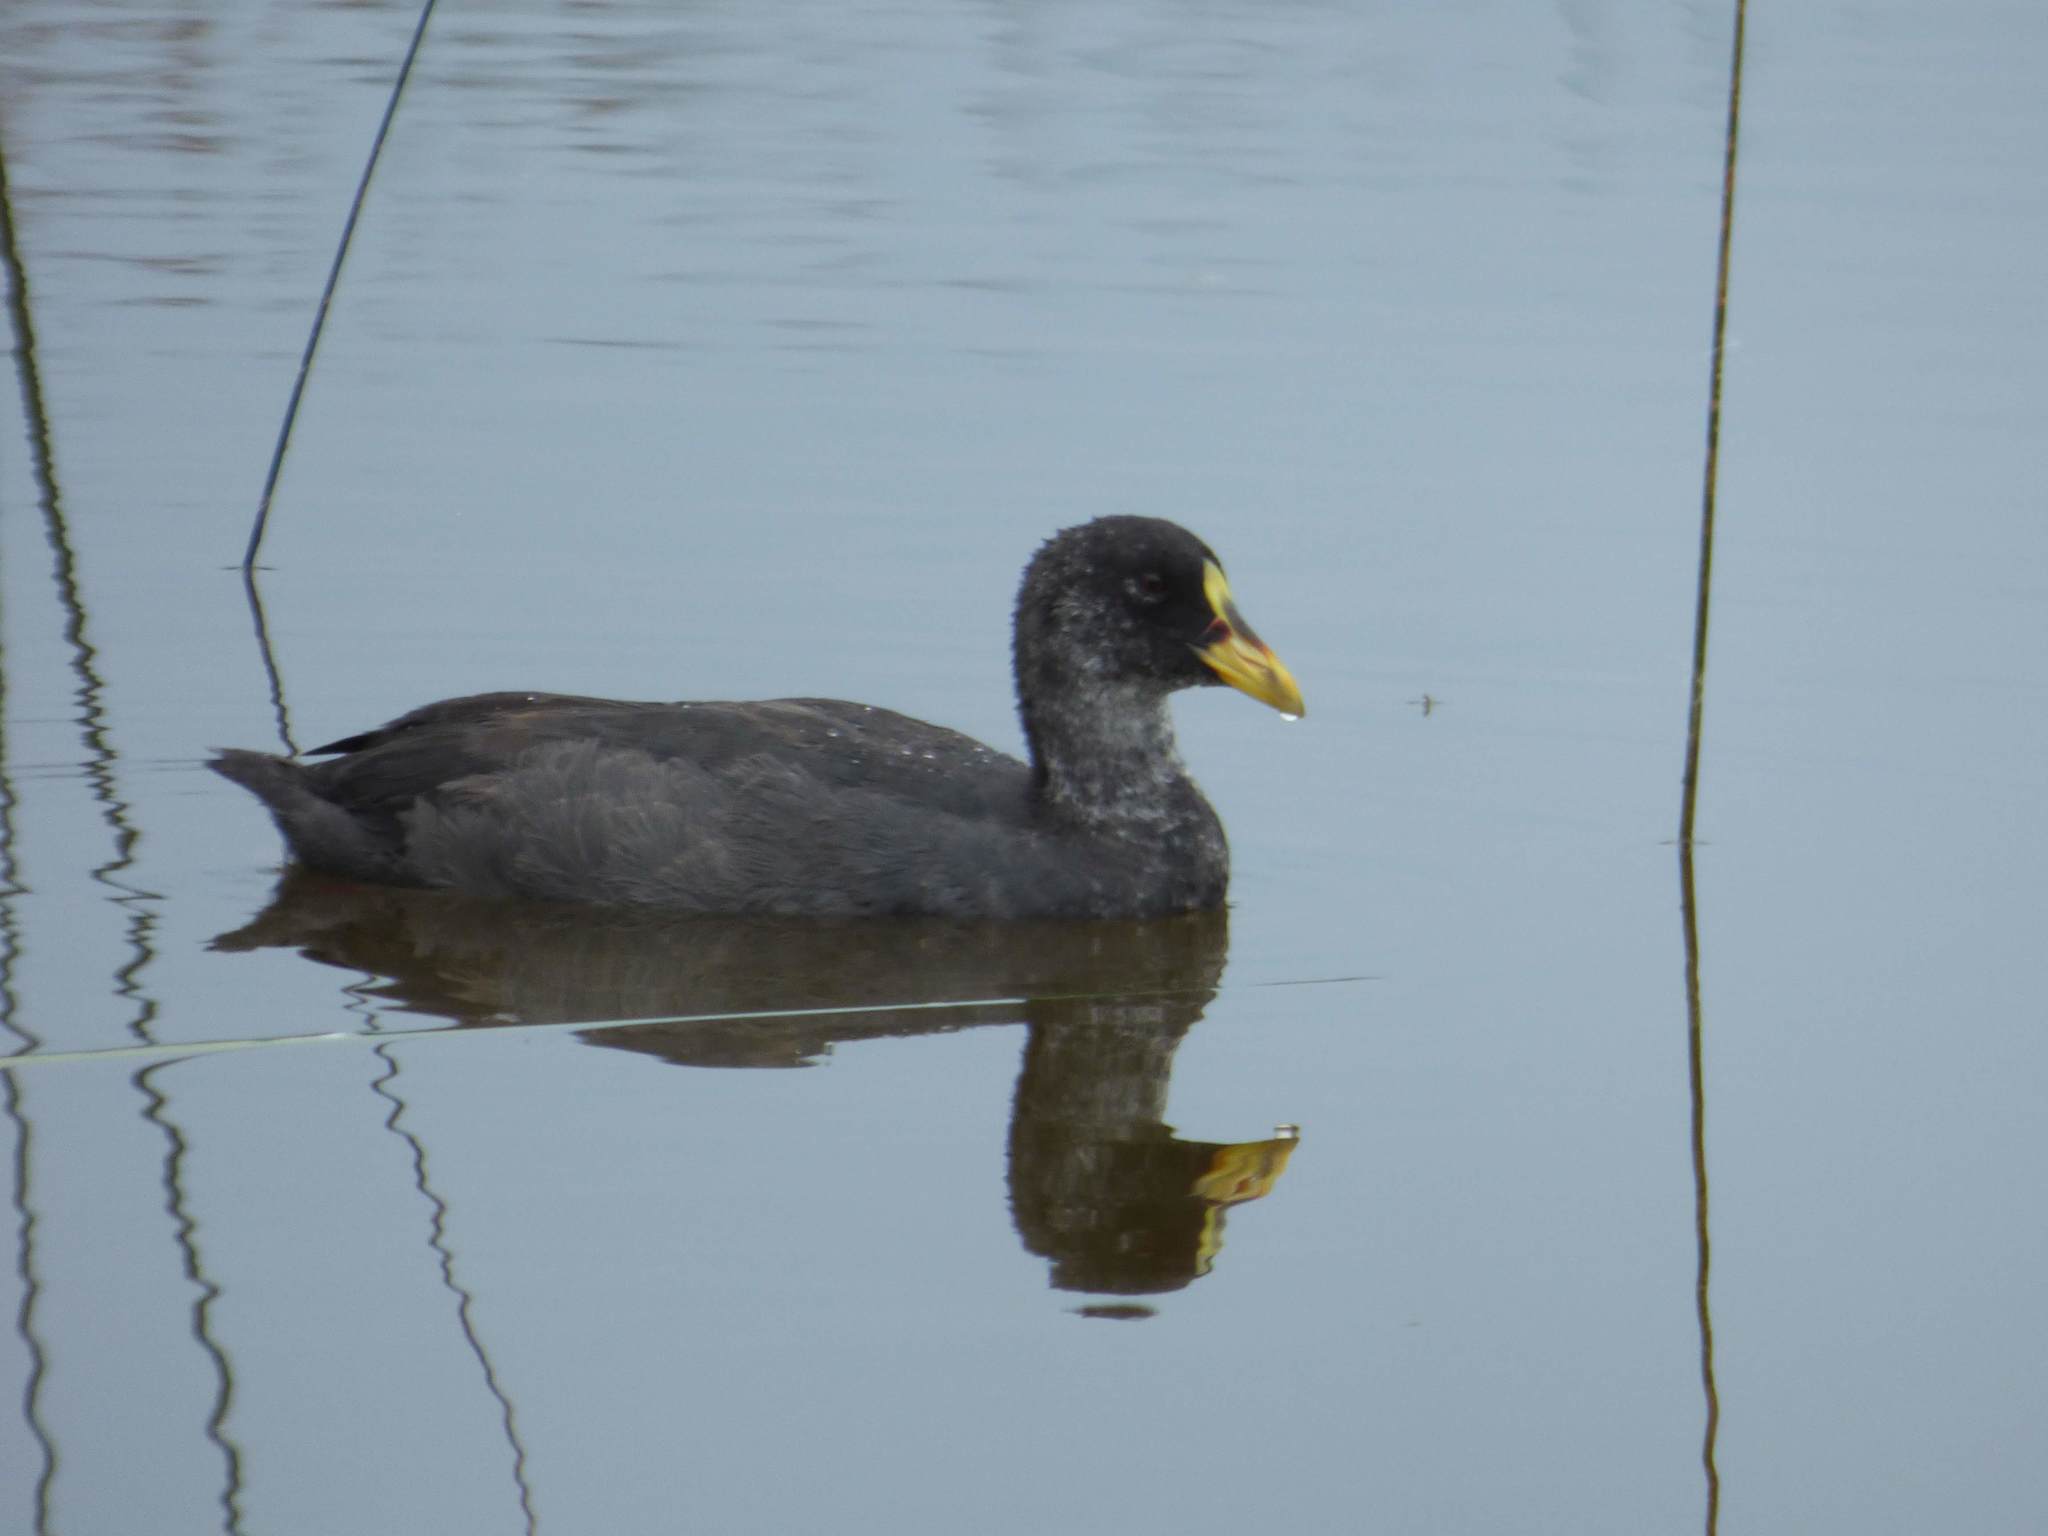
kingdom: Animalia
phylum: Chordata
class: Aves
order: Gruiformes
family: Rallidae
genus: Fulica
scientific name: Fulica armillata
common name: Red-gartered coot
